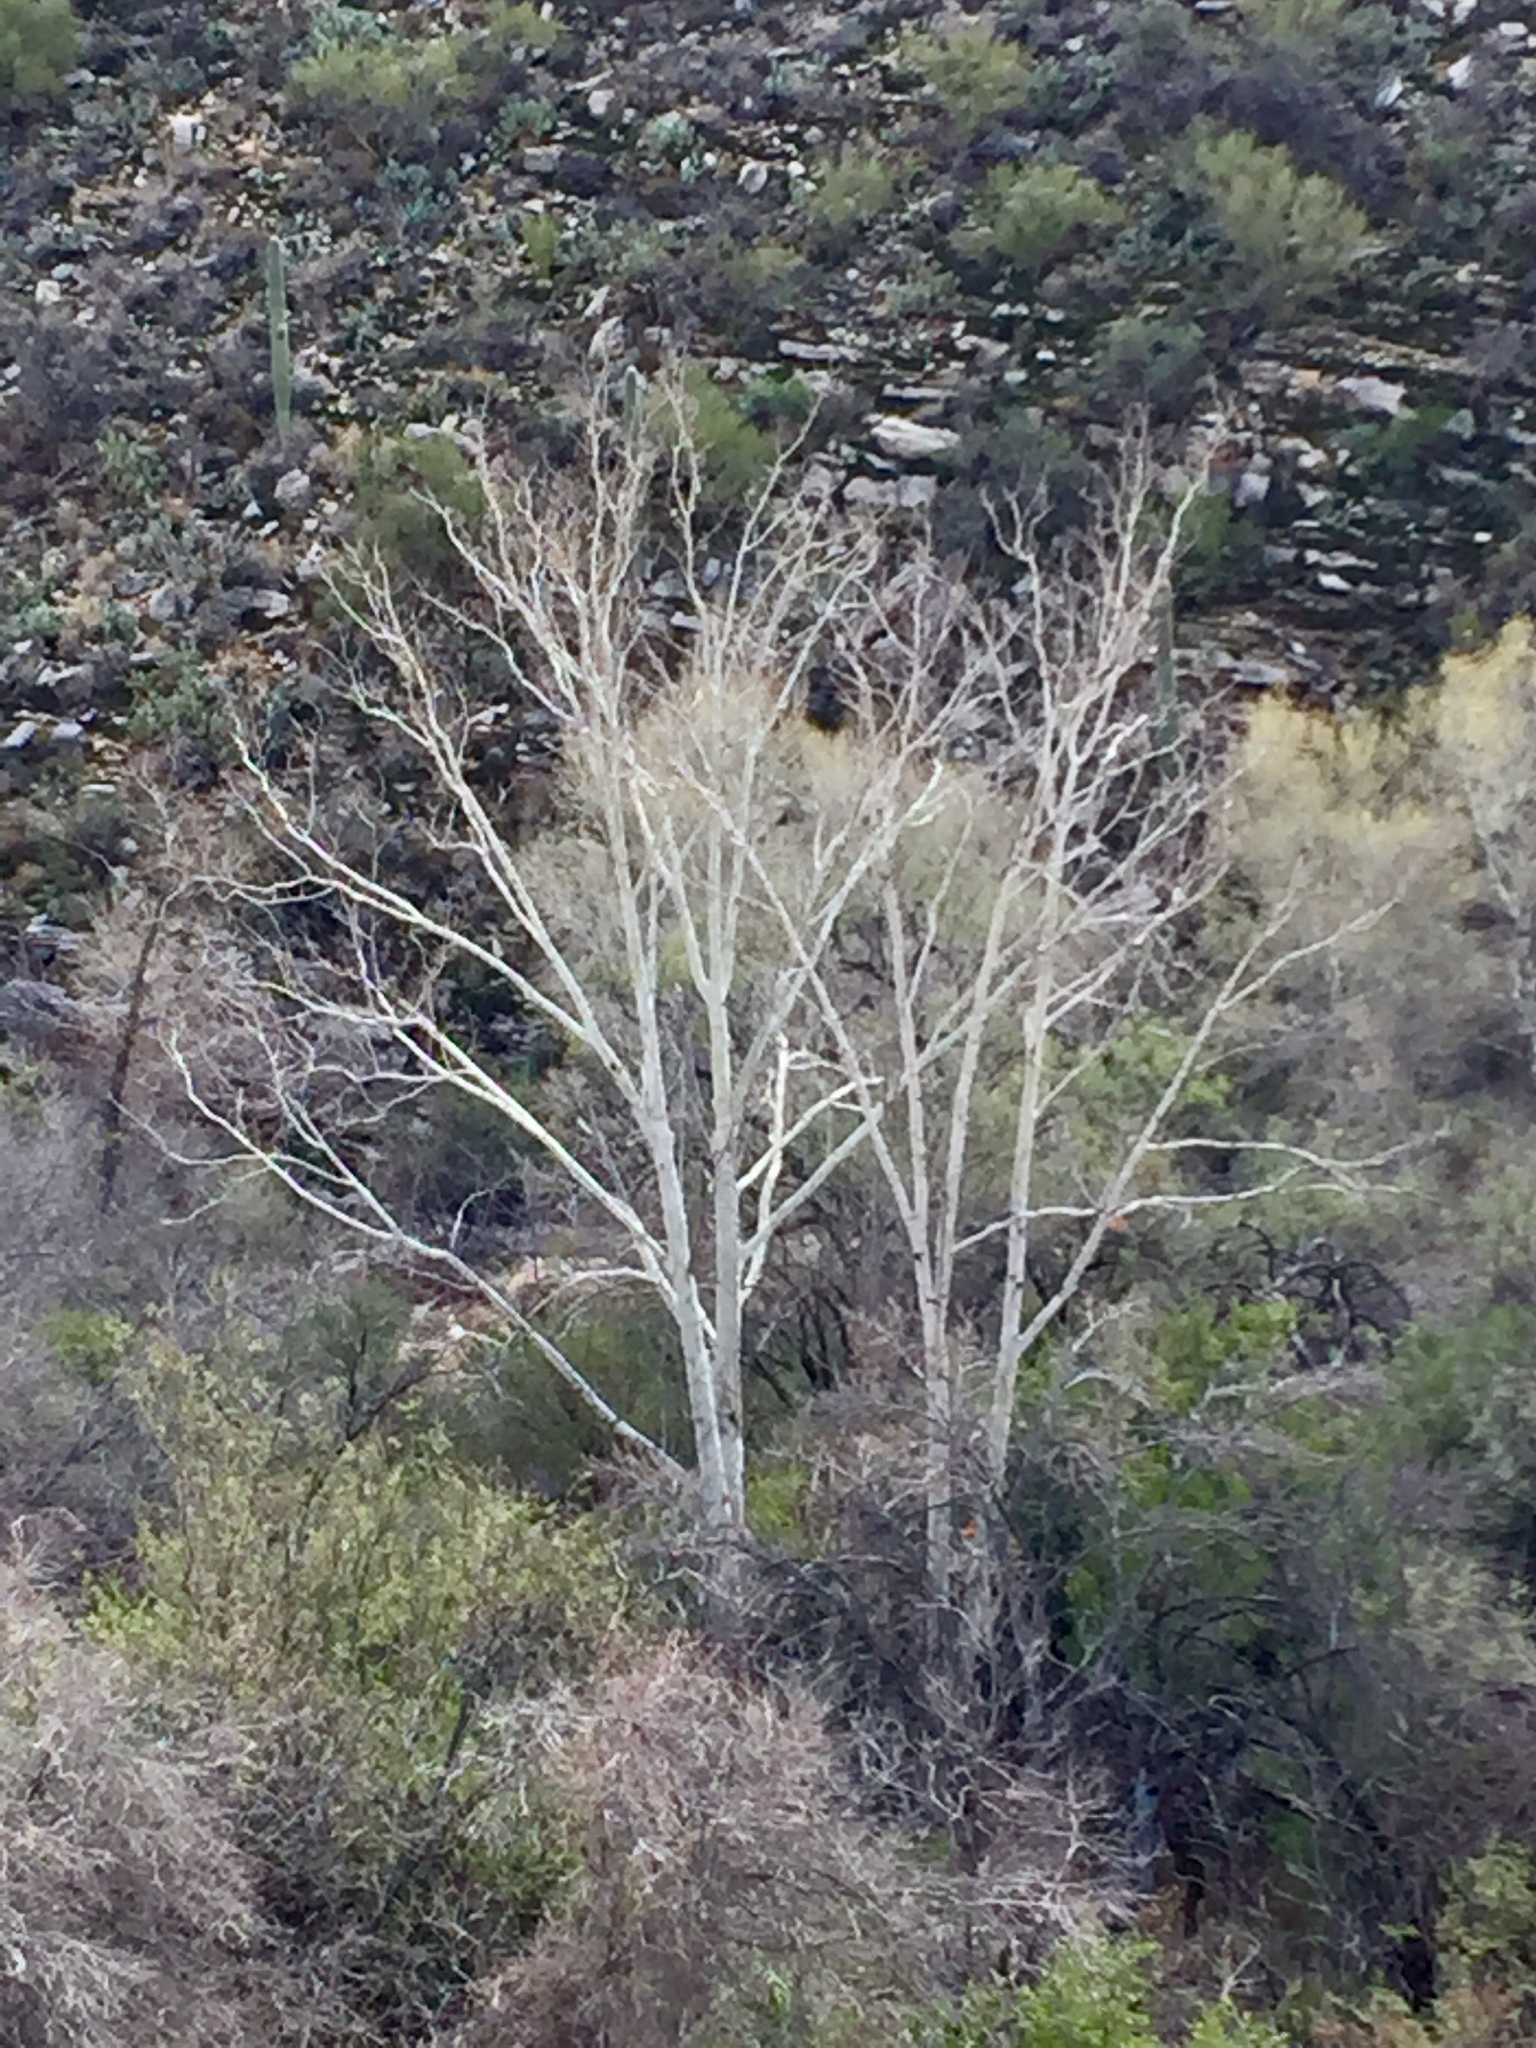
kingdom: Plantae
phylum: Tracheophyta
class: Magnoliopsida
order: Proteales
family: Platanaceae
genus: Platanus
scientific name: Platanus wrightii
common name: Arizona sycamore
